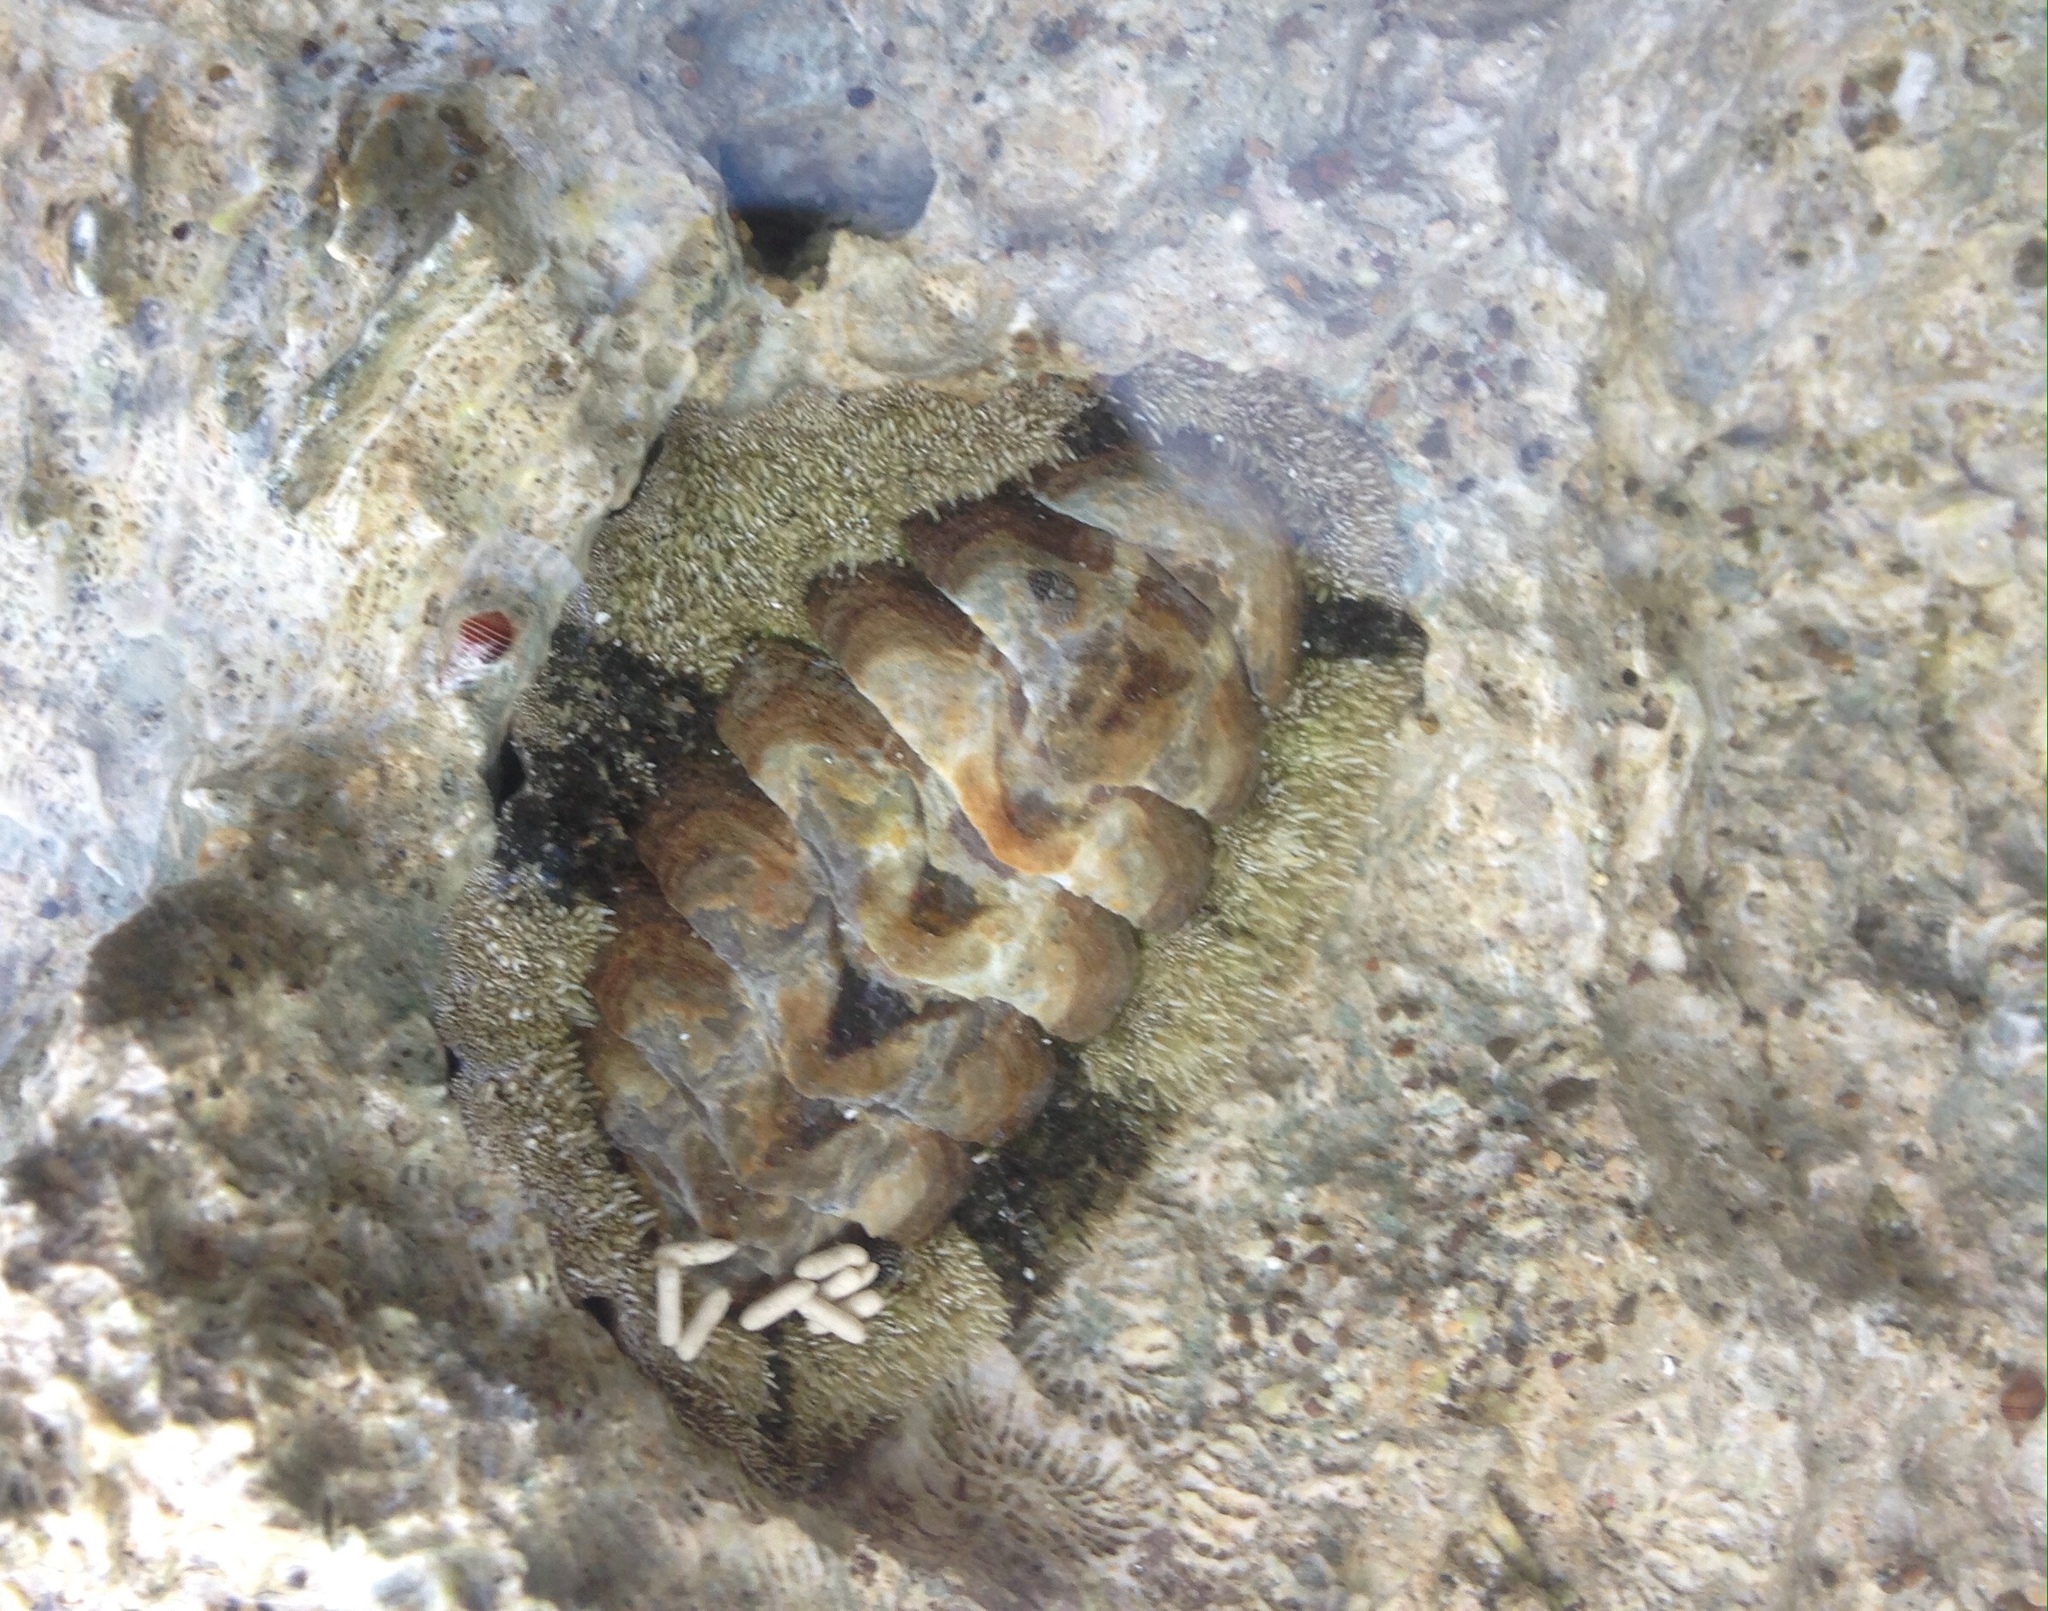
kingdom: Animalia
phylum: Mollusca
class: Polyplacophora
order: Chitonida
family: Chitonidae
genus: Acanthopleura
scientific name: Acanthopleura granulata
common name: West indian fuzzy chiton
